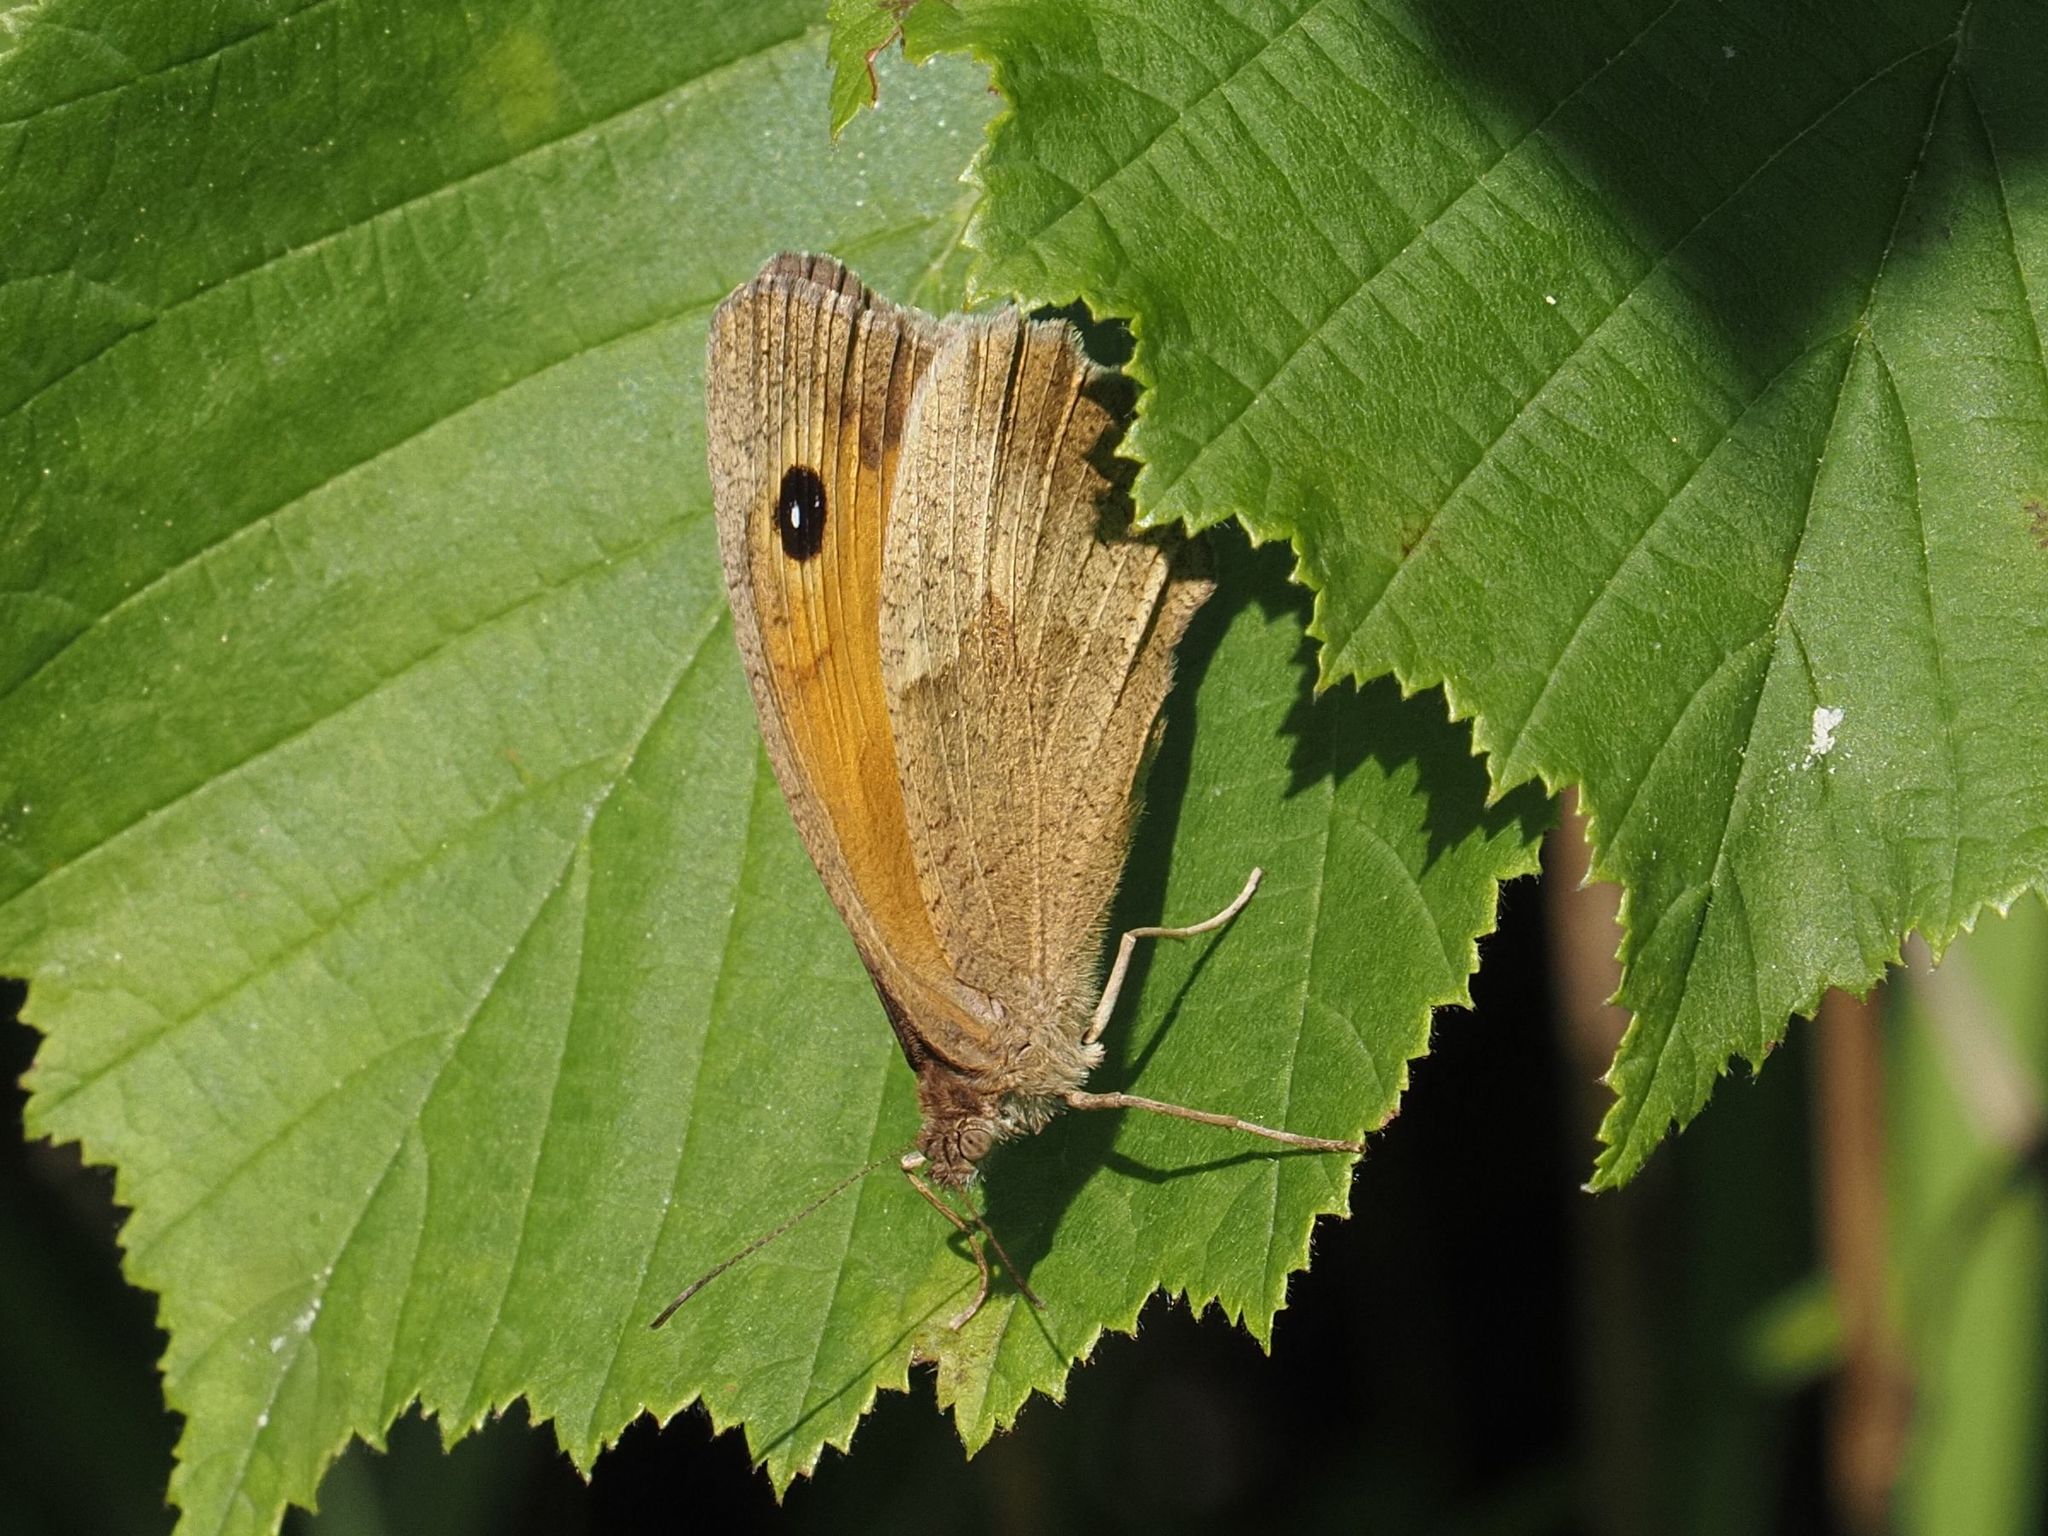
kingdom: Animalia
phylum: Arthropoda
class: Insecta
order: Lepidoptera
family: Nymphalidae
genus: Maniola
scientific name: Maniola jurtina
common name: Meadow brown
